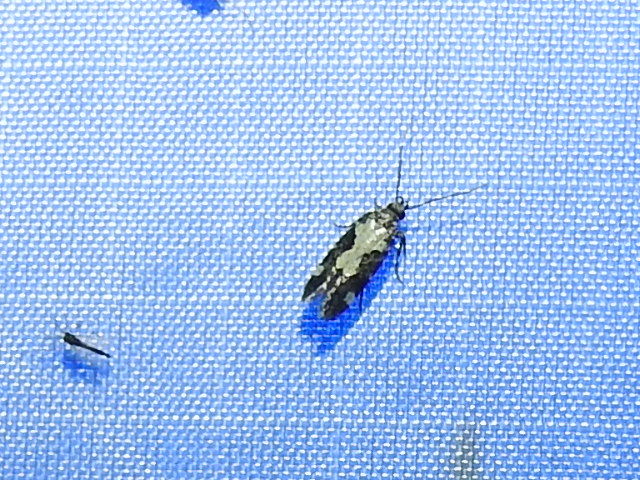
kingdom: Animalia
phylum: Arthropoda
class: Insecta
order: Lepidoptera
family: Gelechiidae
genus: Stegasta
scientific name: Stegasta bosqueella
